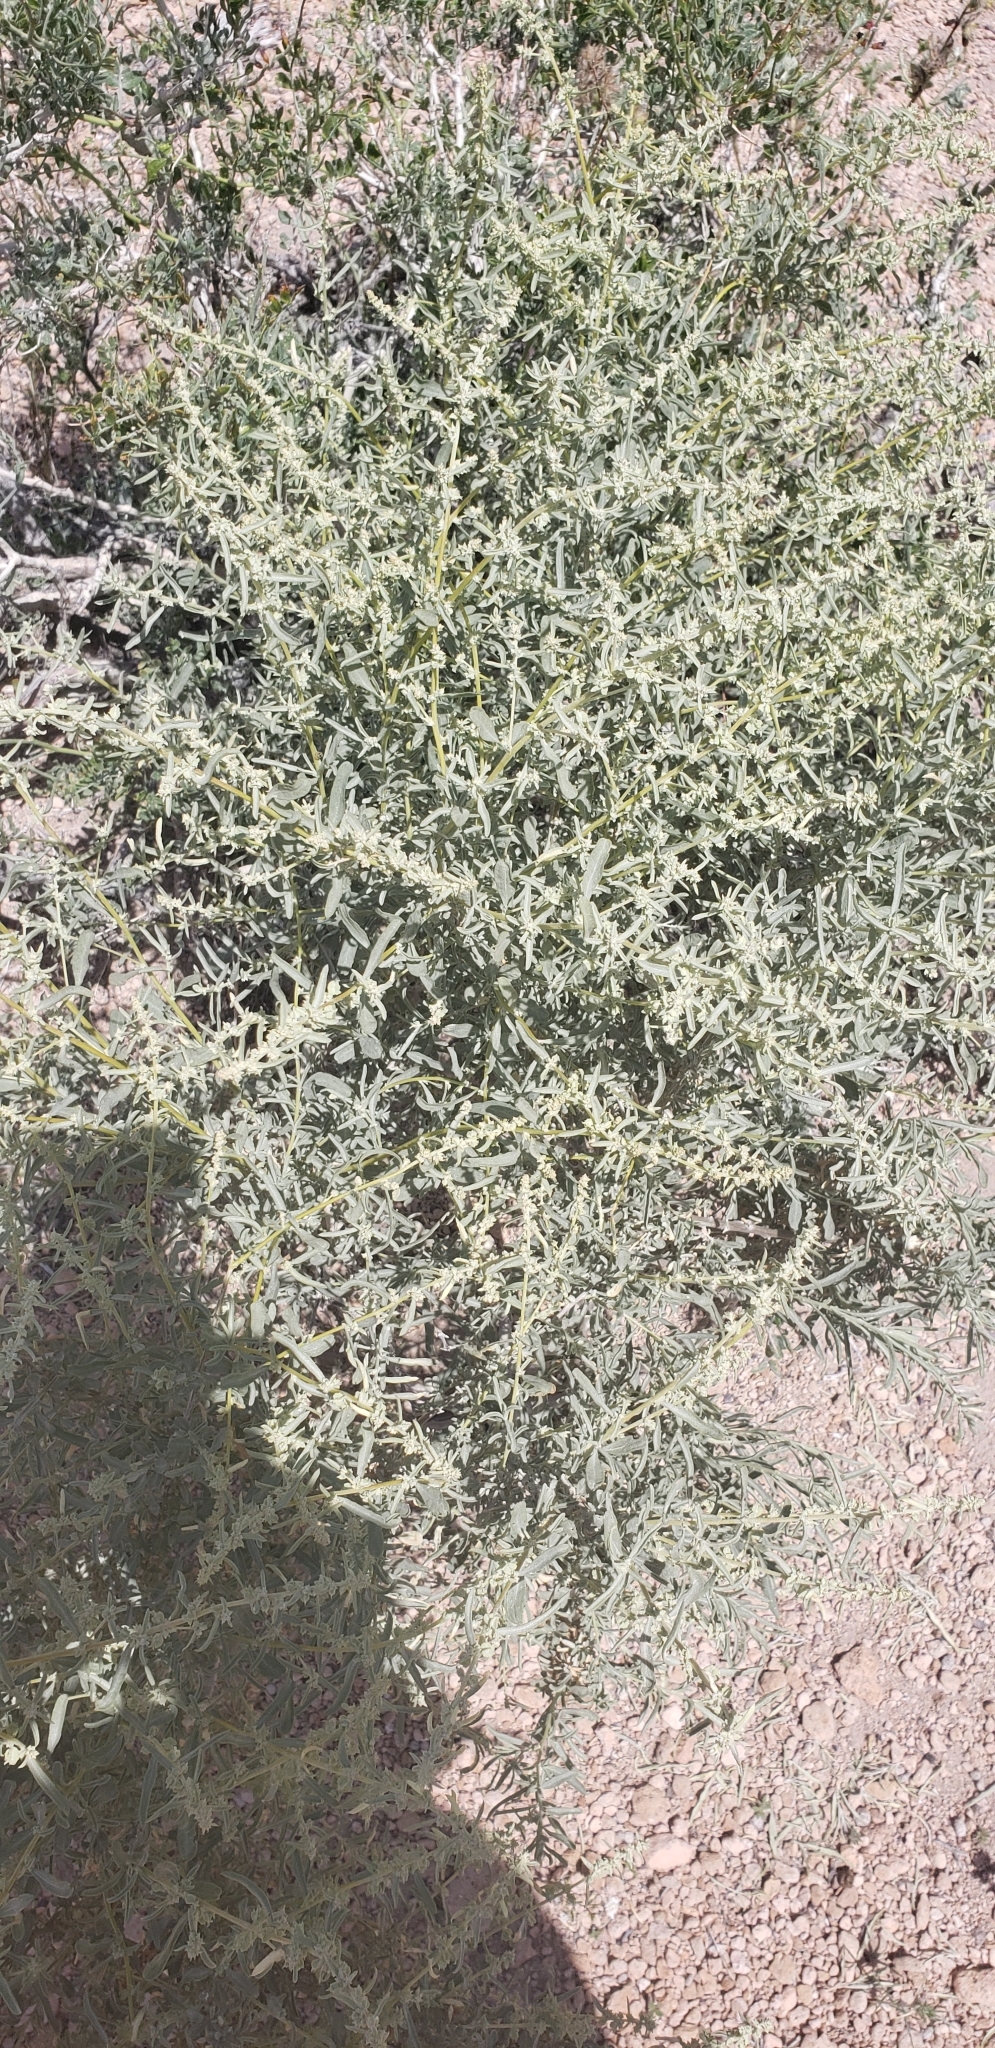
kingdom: Plantae
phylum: Tracheophyta
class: Magnoliopsida
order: Caryophyllales
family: Amaranthaceae
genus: Atriplex
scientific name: Atriplex canescens
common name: Four-wing saltbush
